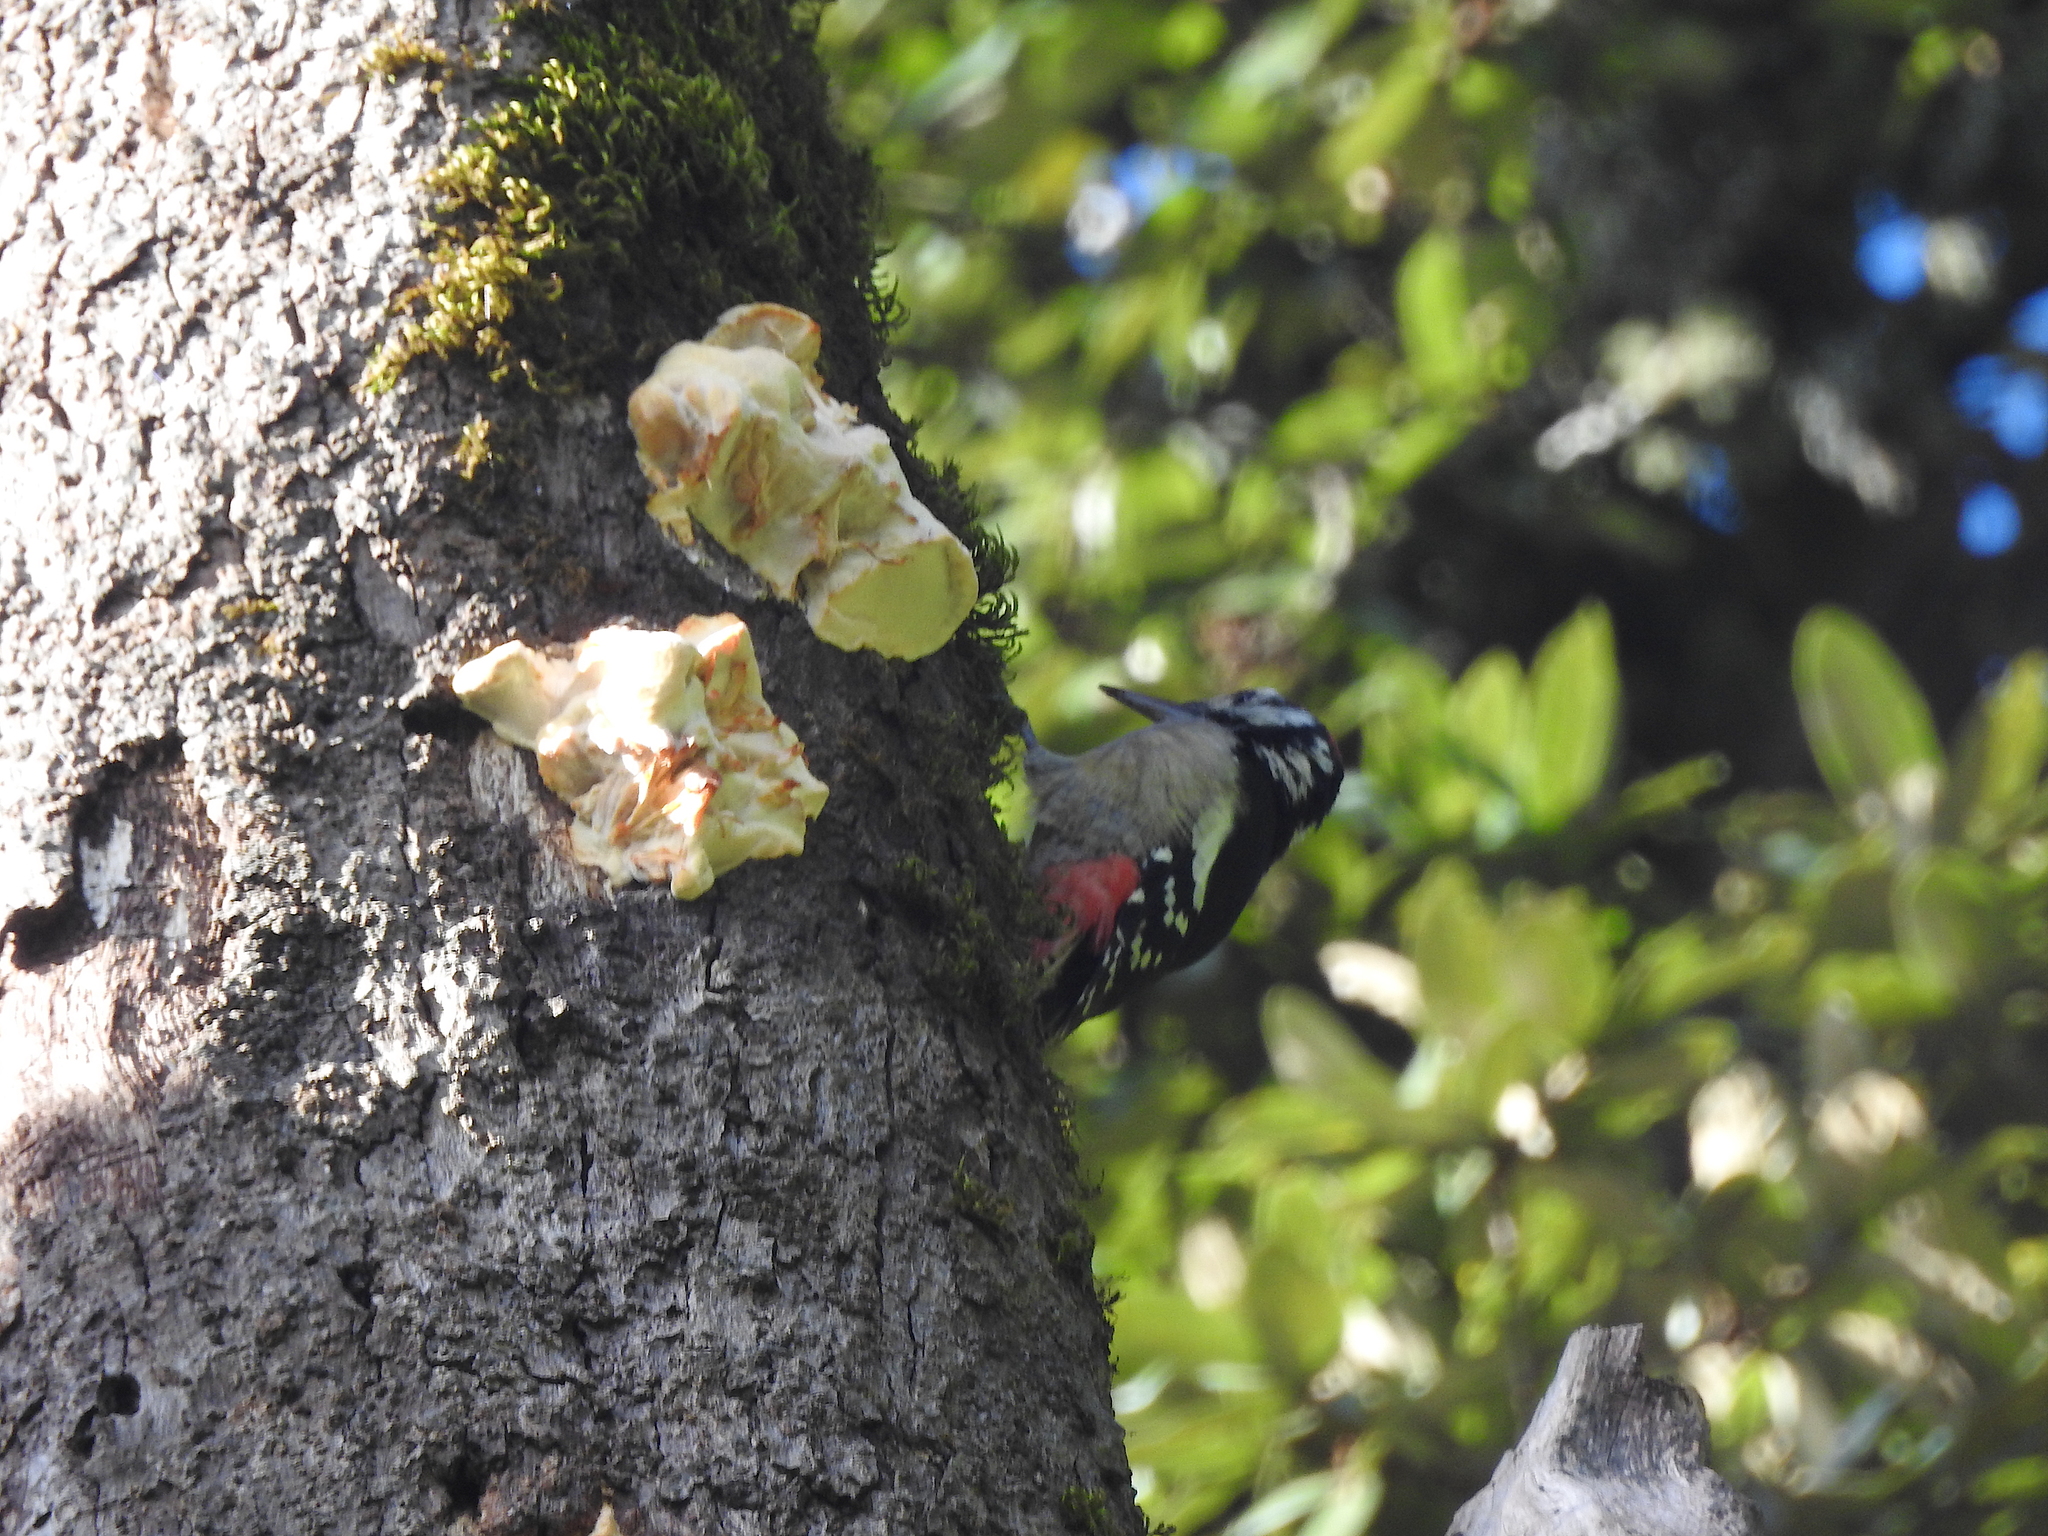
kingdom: Animalia
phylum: Chordata
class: Aves
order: Piciformes
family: Picidae
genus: Dendrocopos
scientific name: Dendrocopos himalayensis
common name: Himalayan woodpecker
